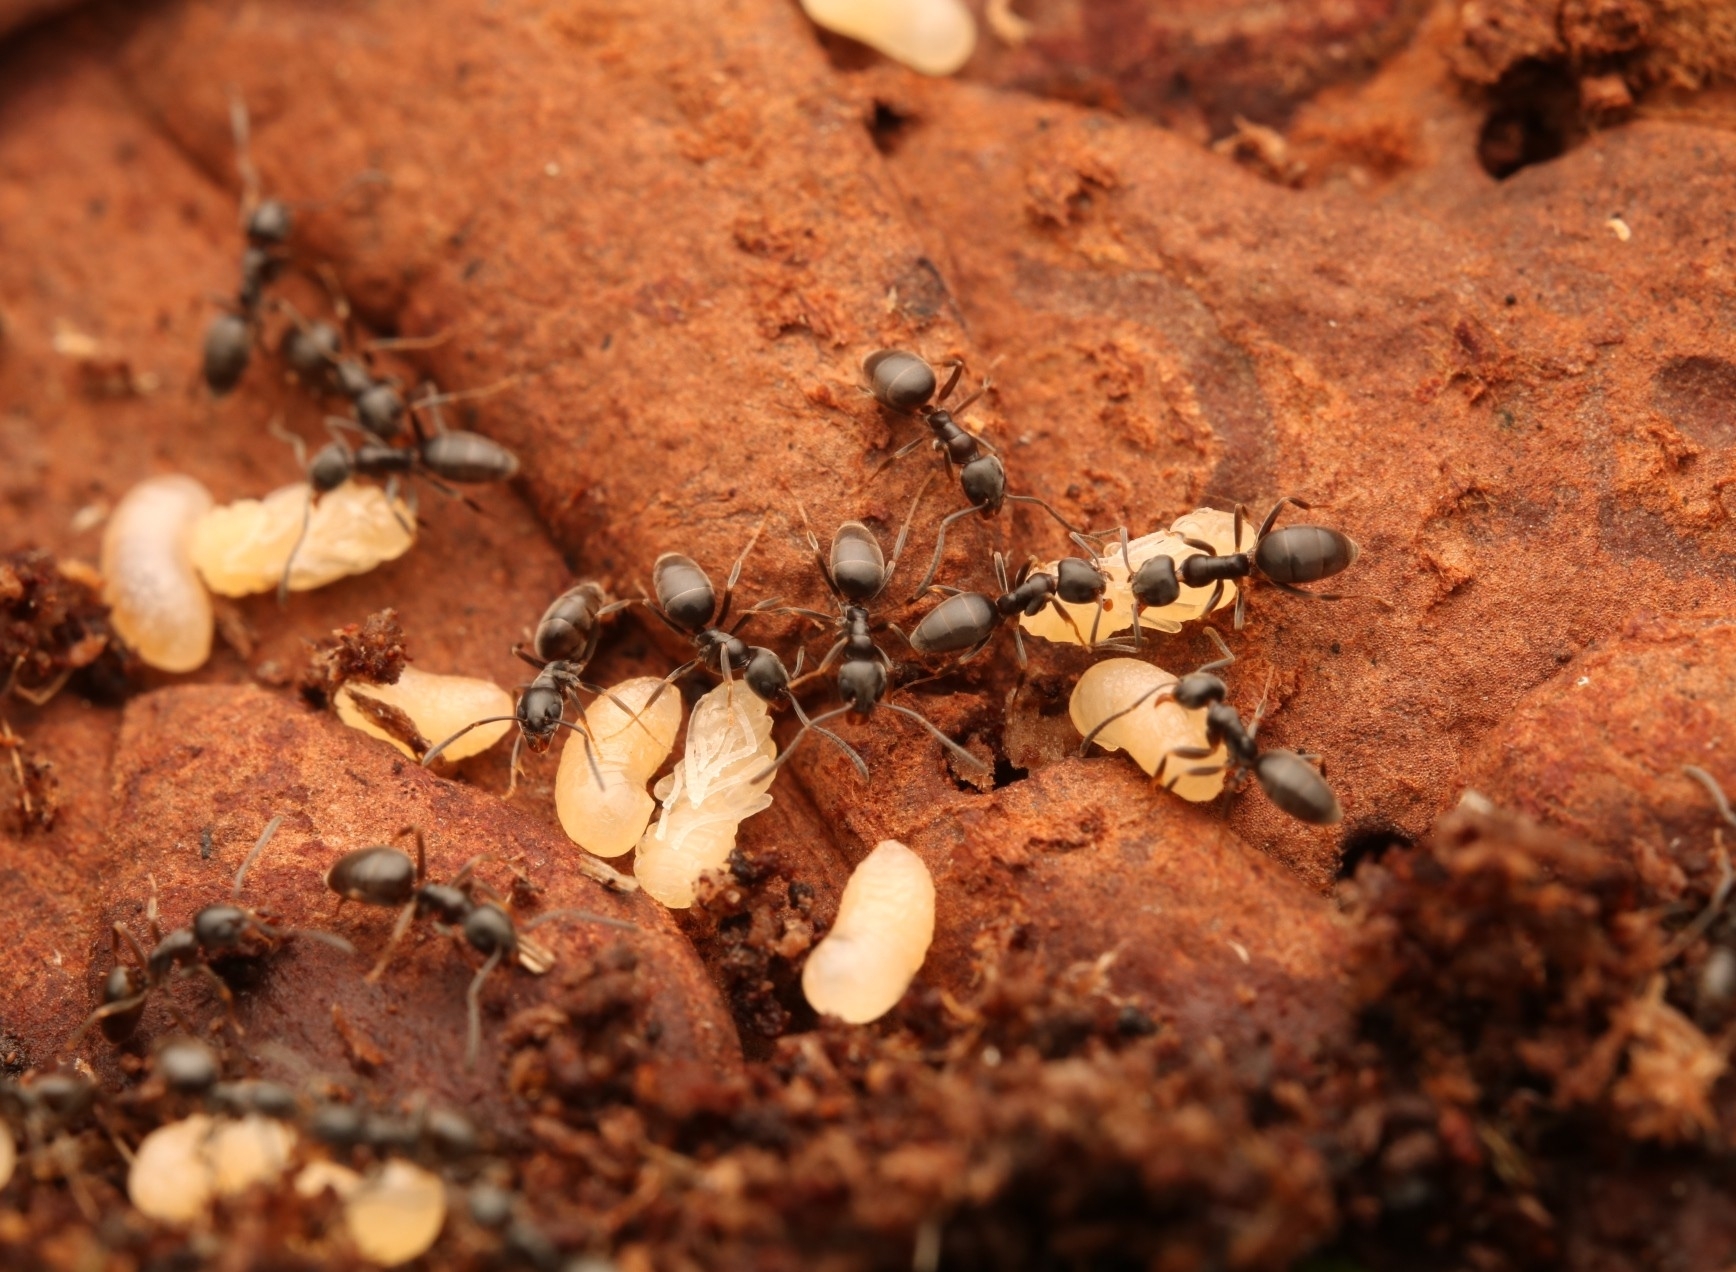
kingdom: Animalia
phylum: Arthropoda
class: Insecta
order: Hymenoptera
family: Formicidae
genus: Tapinoma
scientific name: Tapinoma sessile
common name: Odorous house ant
